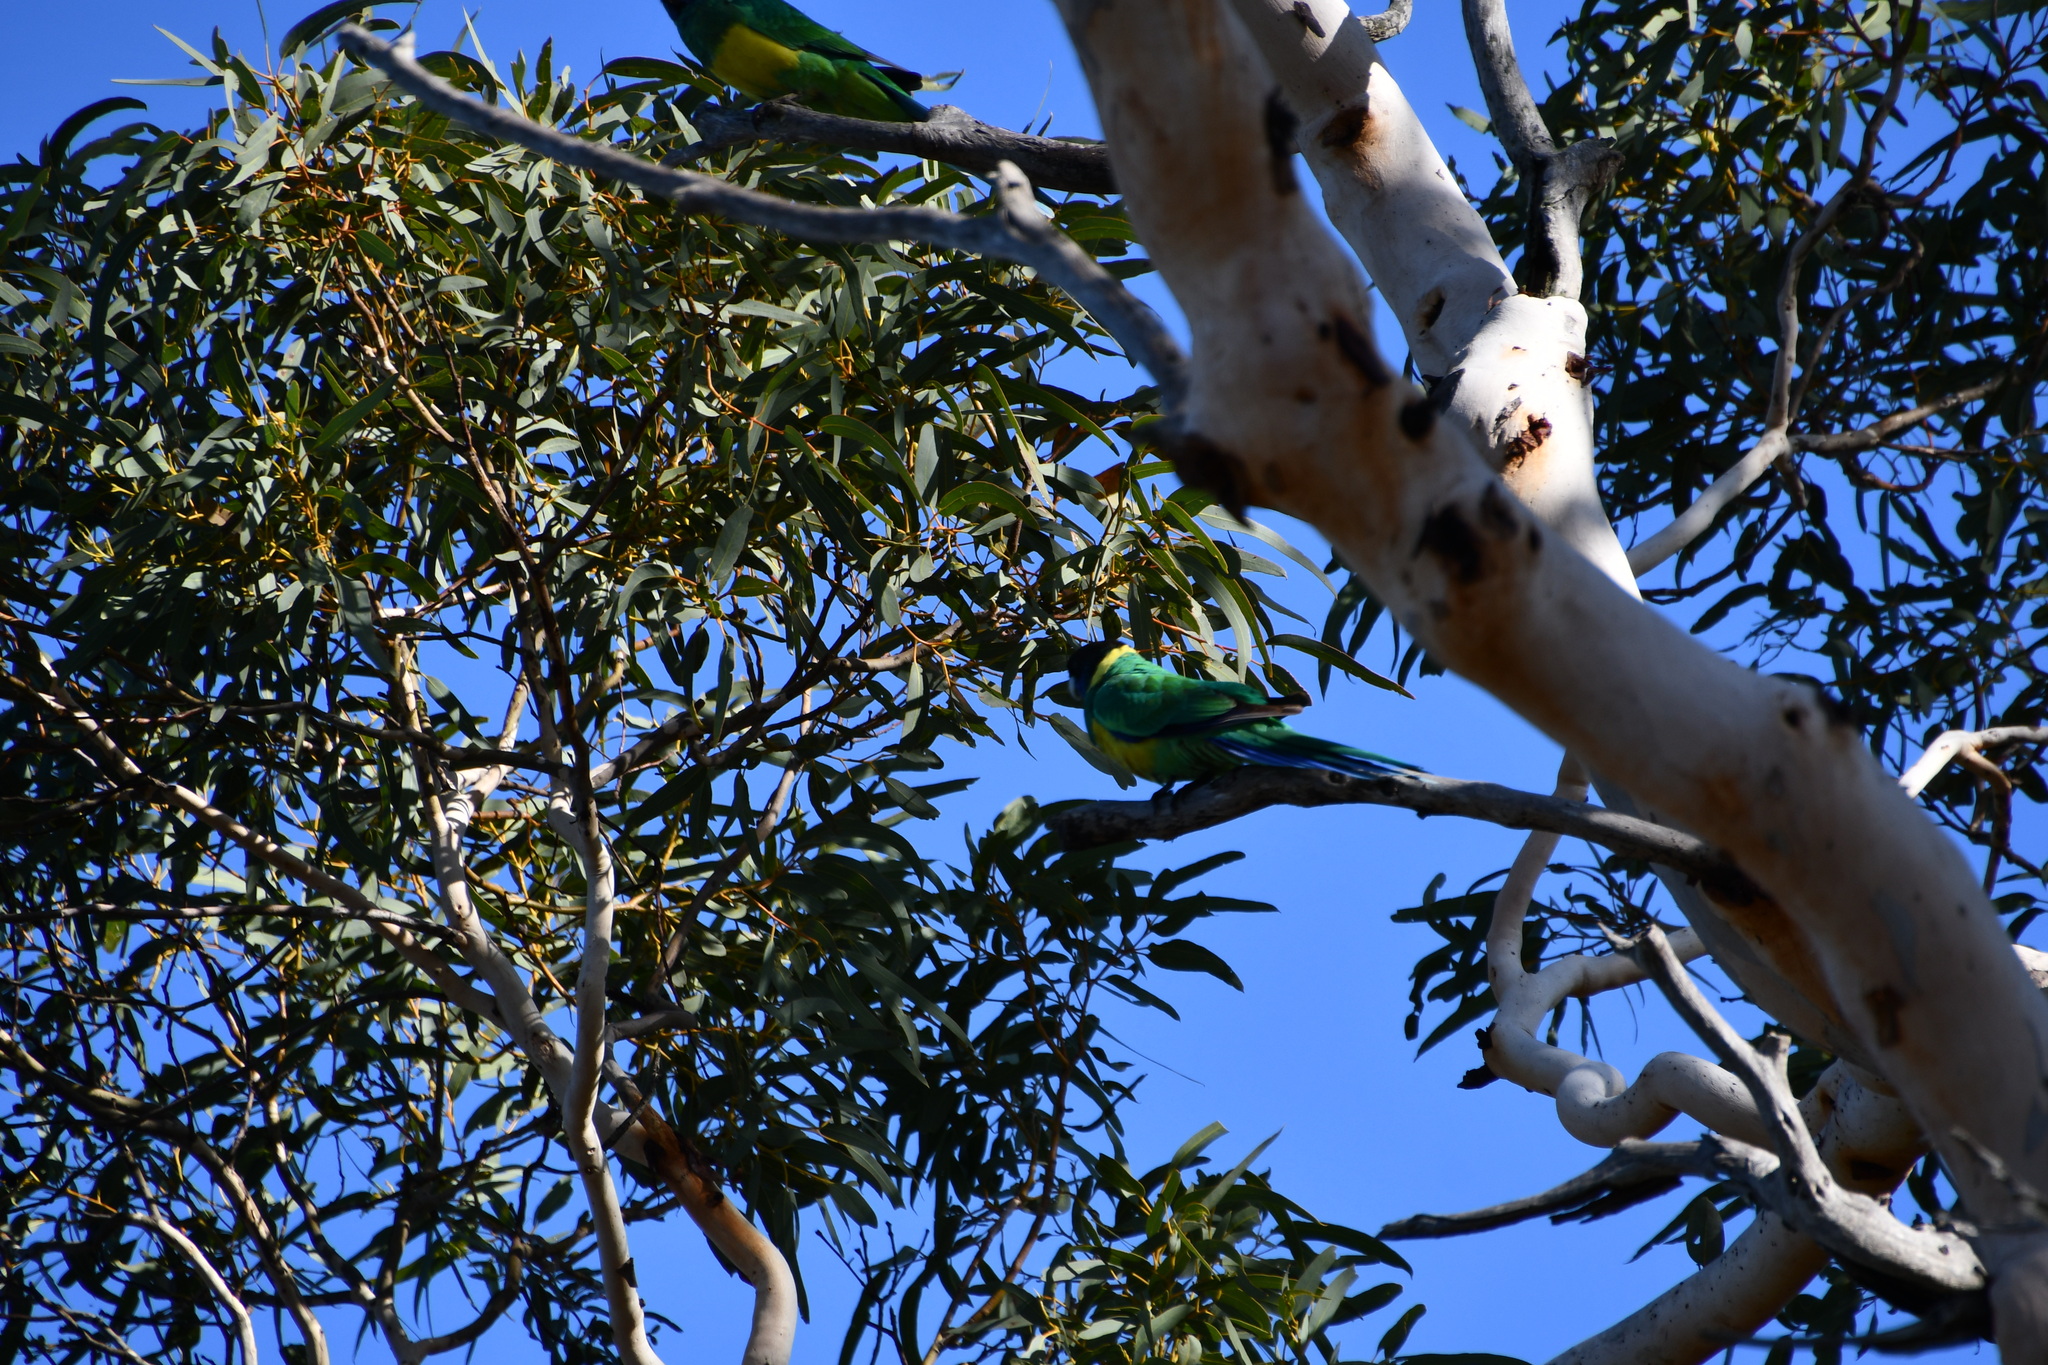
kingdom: Animalia
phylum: Chordata
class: Aves
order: Psittaciformes
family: Psittacidae
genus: Barnardius
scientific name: Barnardius zonarius
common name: Australian ringneck
